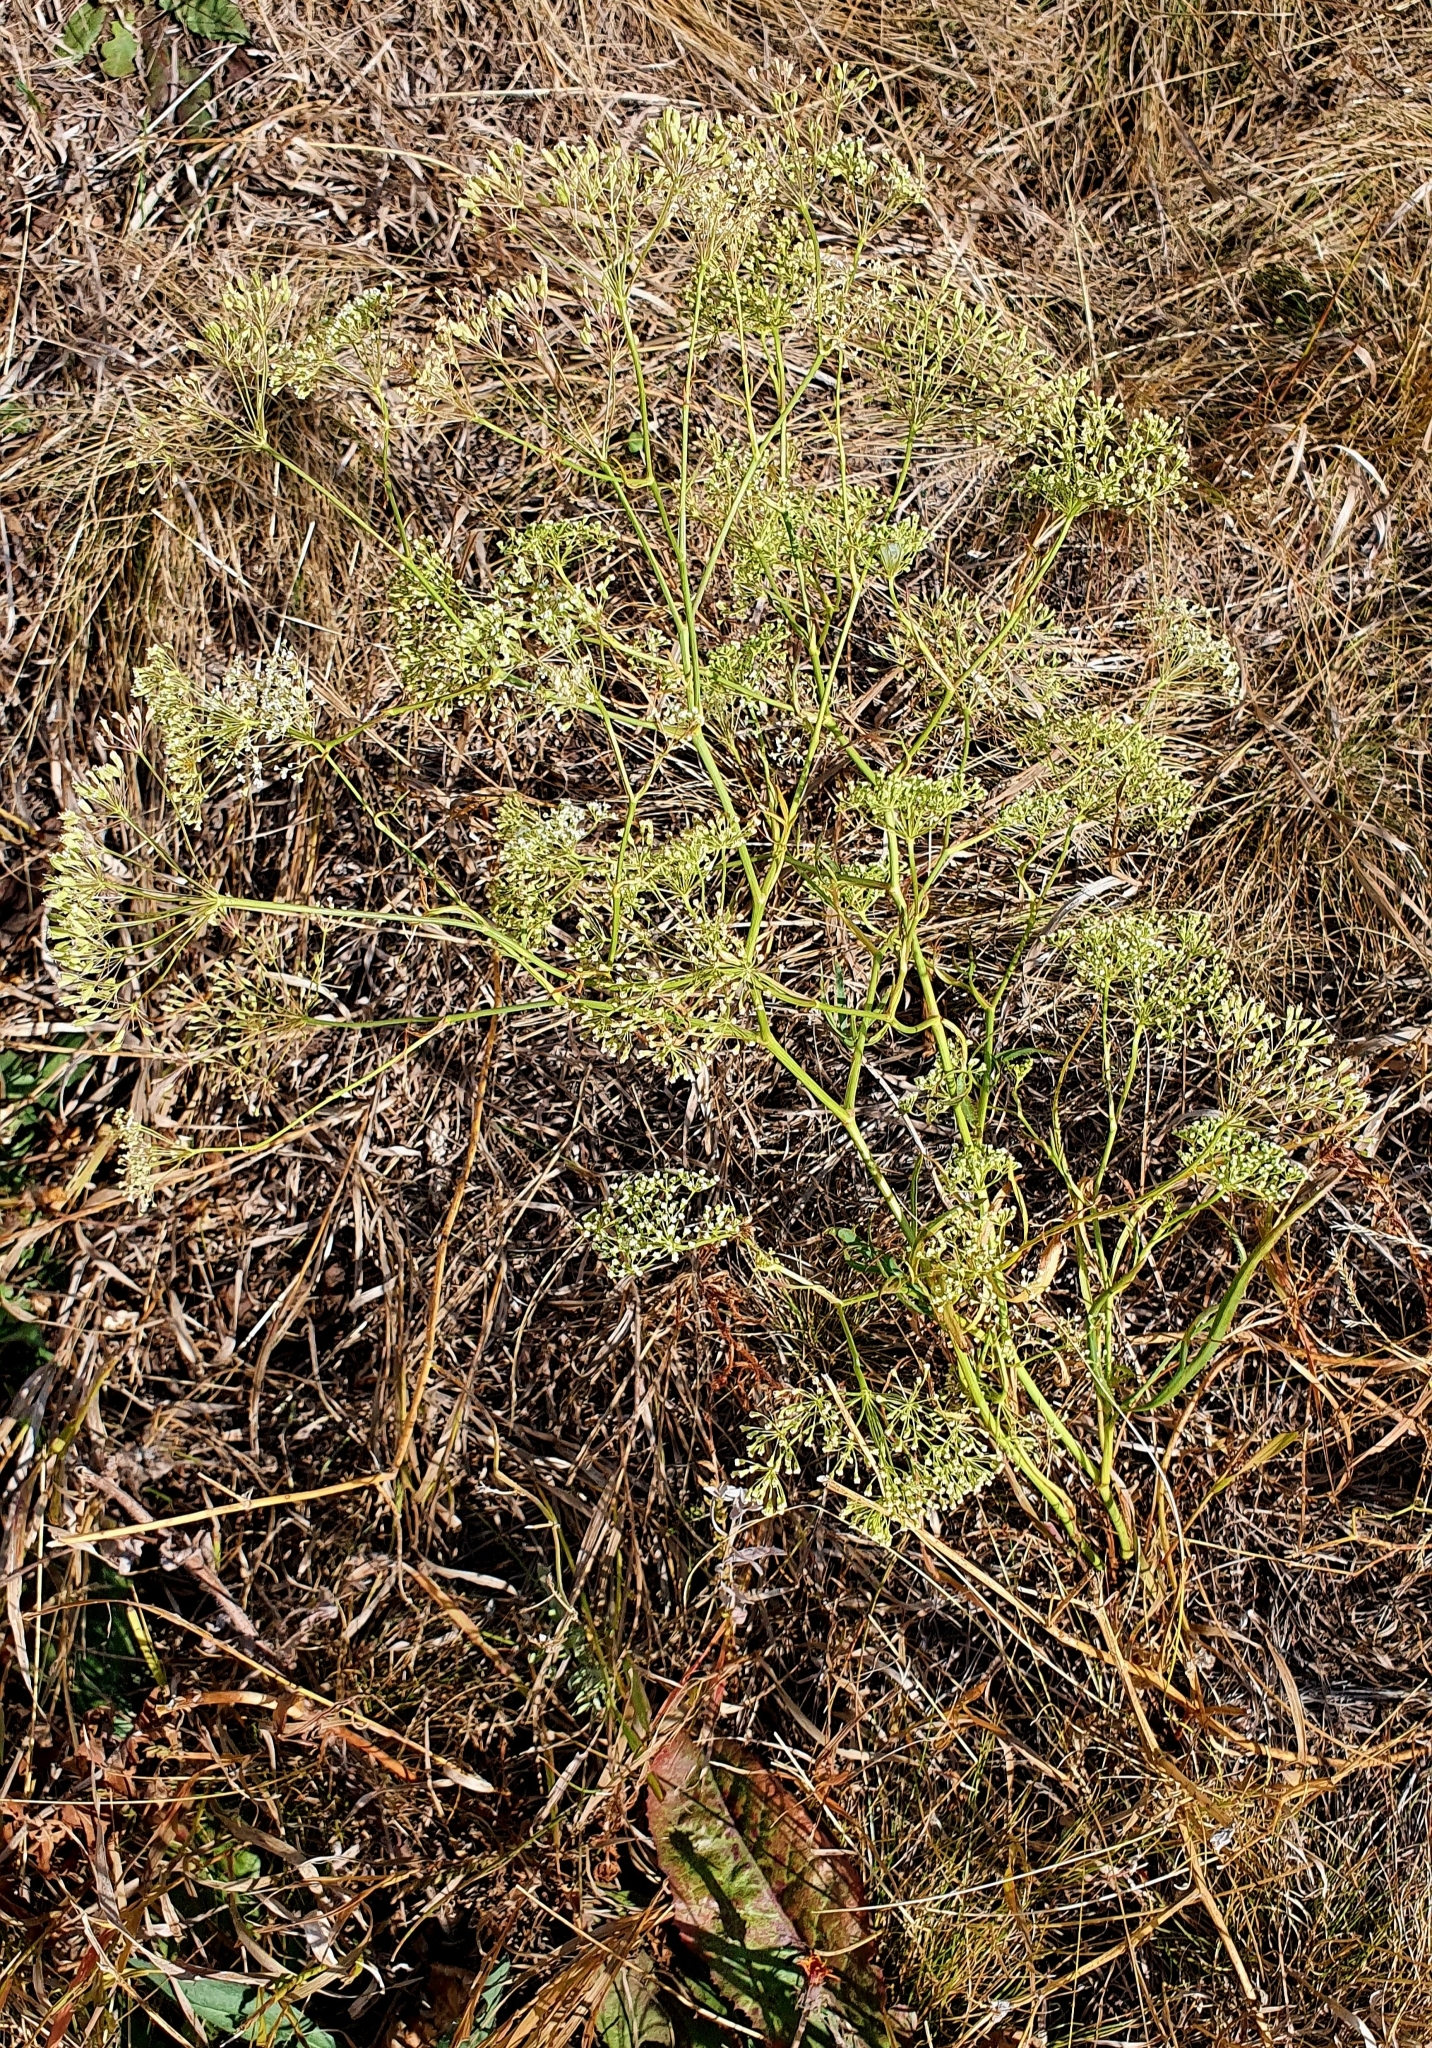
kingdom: Plantae
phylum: Tracheophyta
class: Magnoliopsida
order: Apiales
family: Apiaceae
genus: Falcaria
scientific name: Falcaria vulgaris
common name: Longleaf
